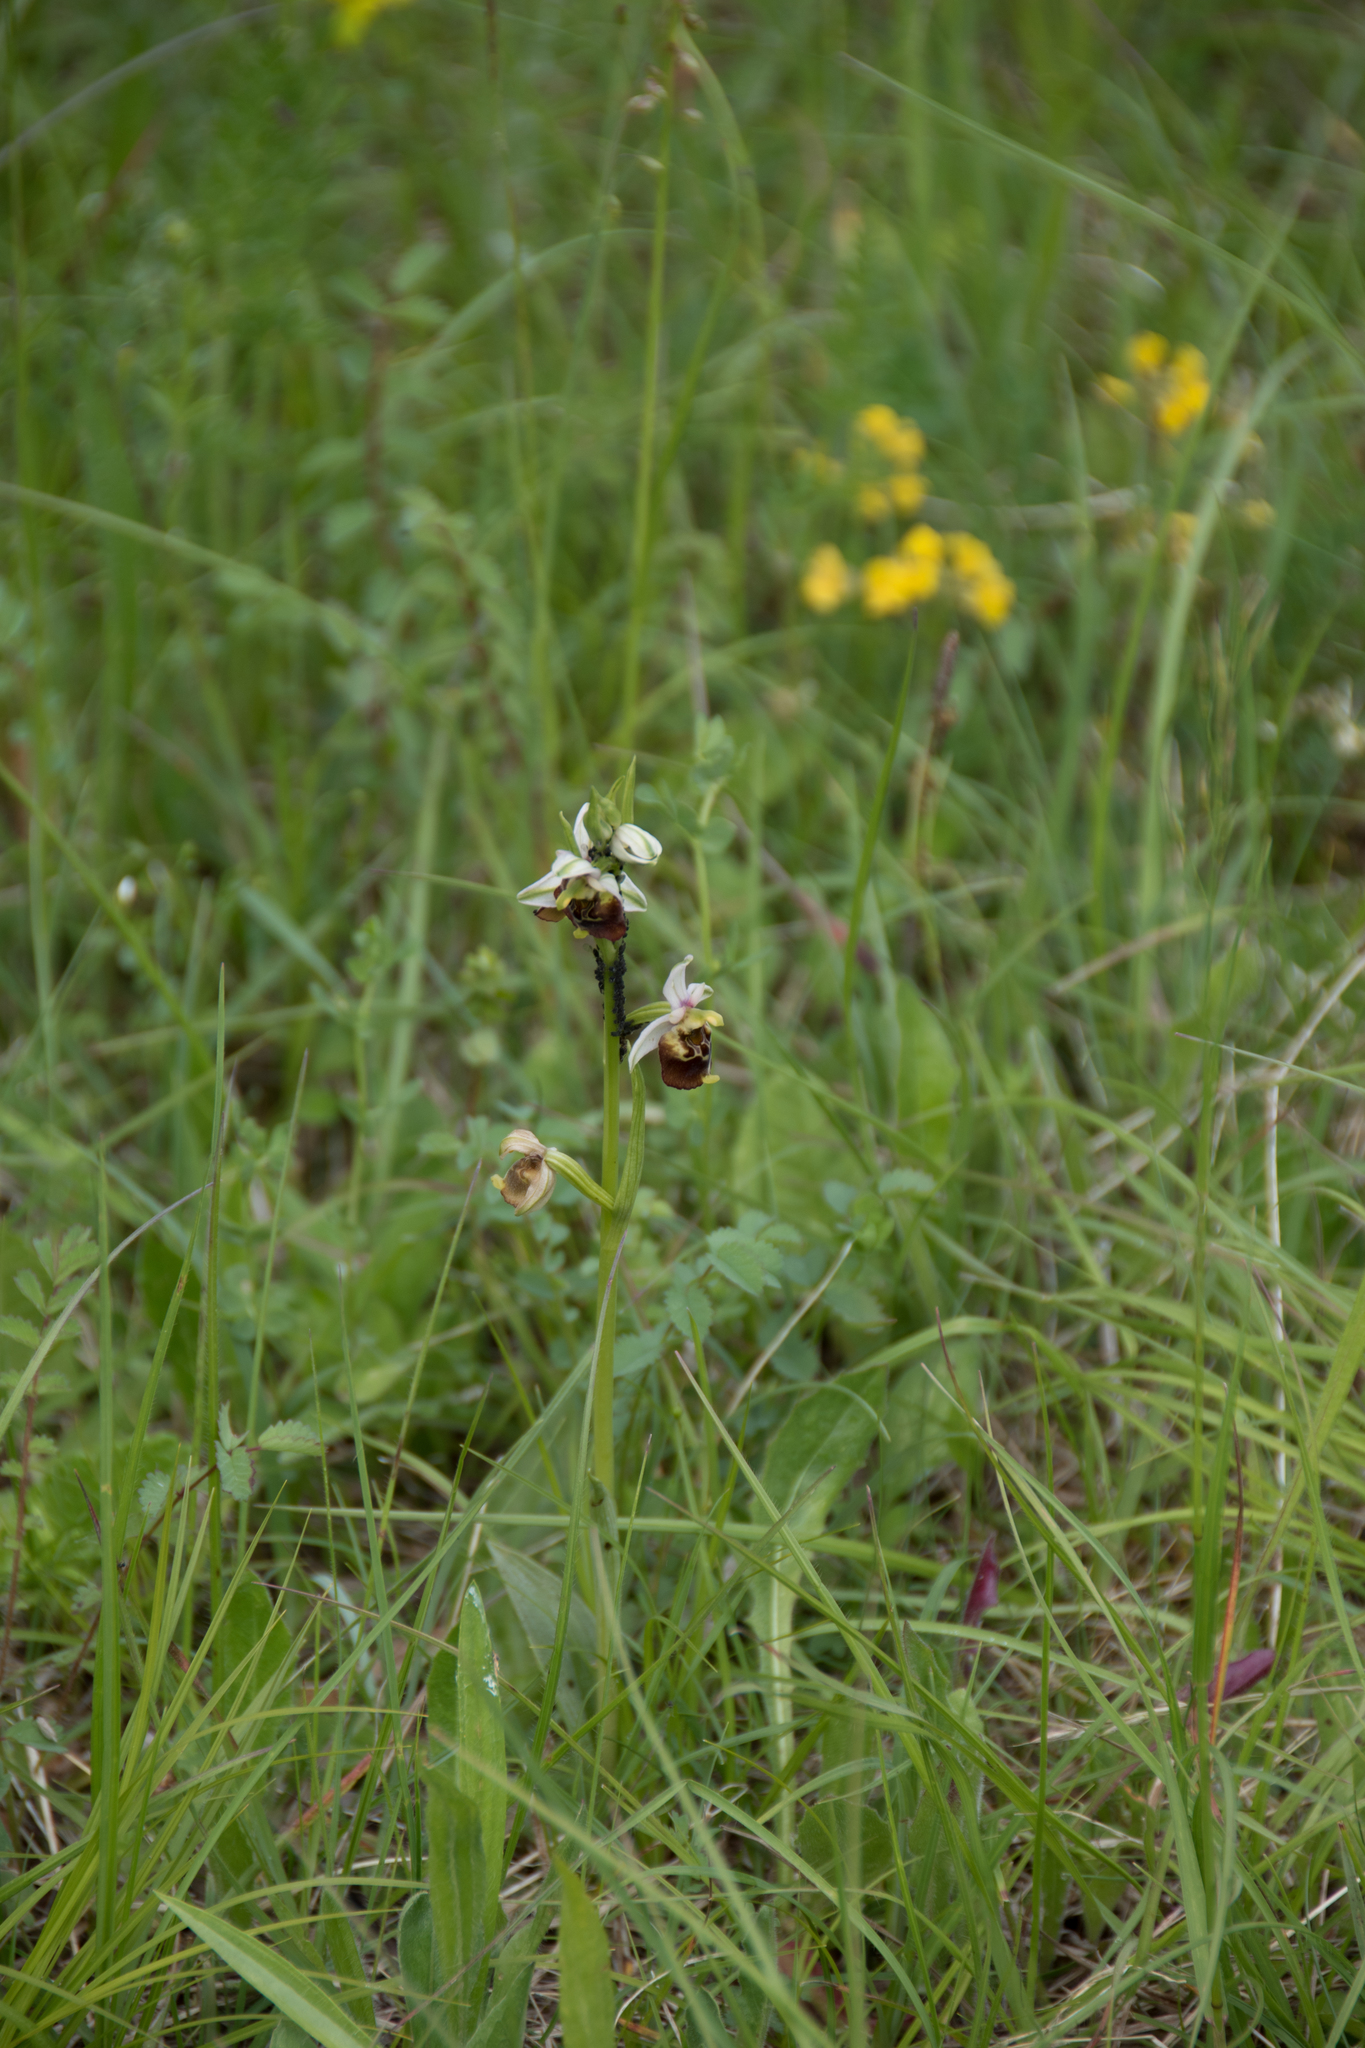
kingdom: Plantae
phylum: Tracheophyta
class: Liliopsida
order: Asparagales
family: Orchidaceae
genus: Ophrys
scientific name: Ophrys holosericea
